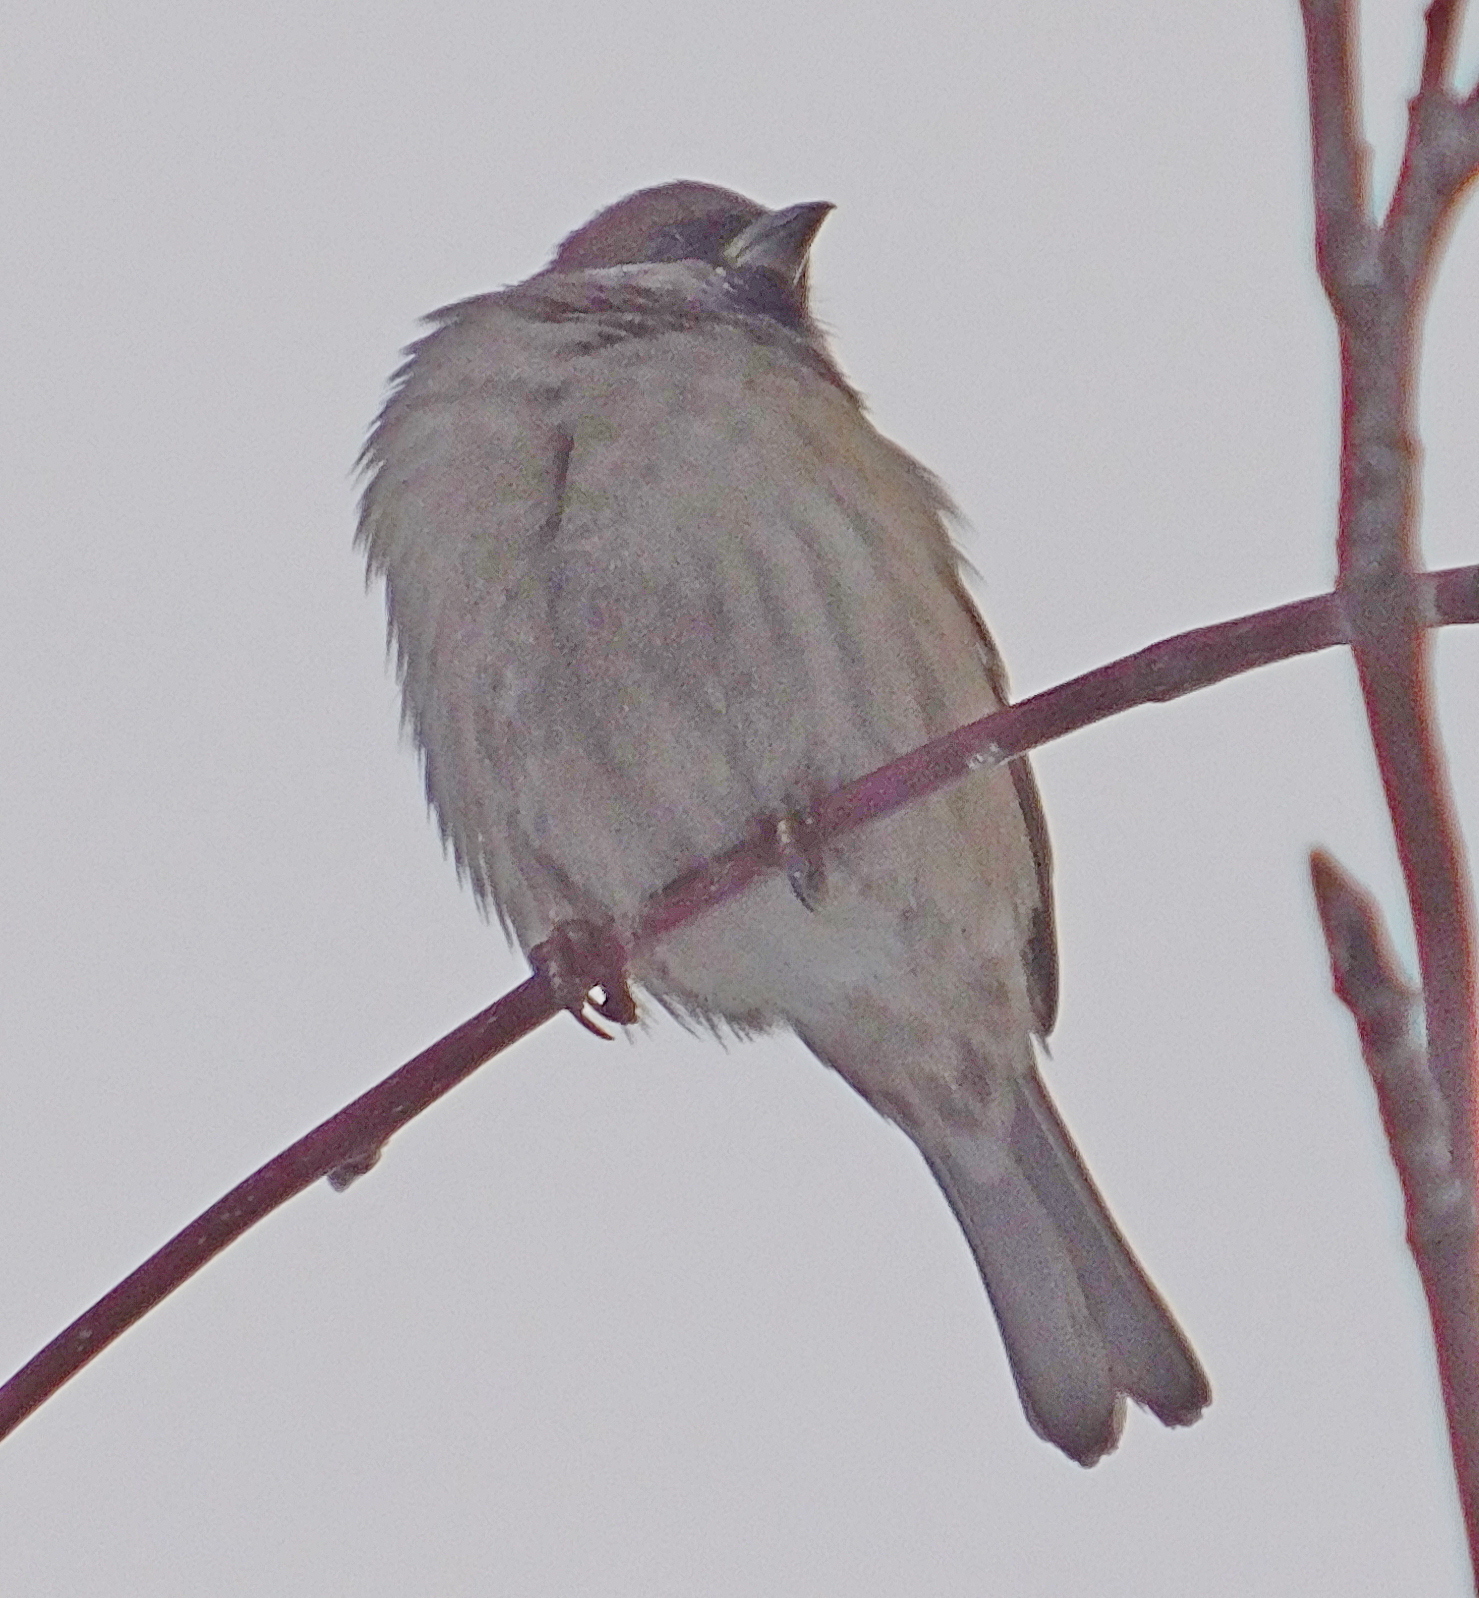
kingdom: Animalia
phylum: Chordata
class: Aves
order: Passeriformes
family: Passeridae
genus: Passer
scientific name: Passer montanus
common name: Eurasian tree sparrow
